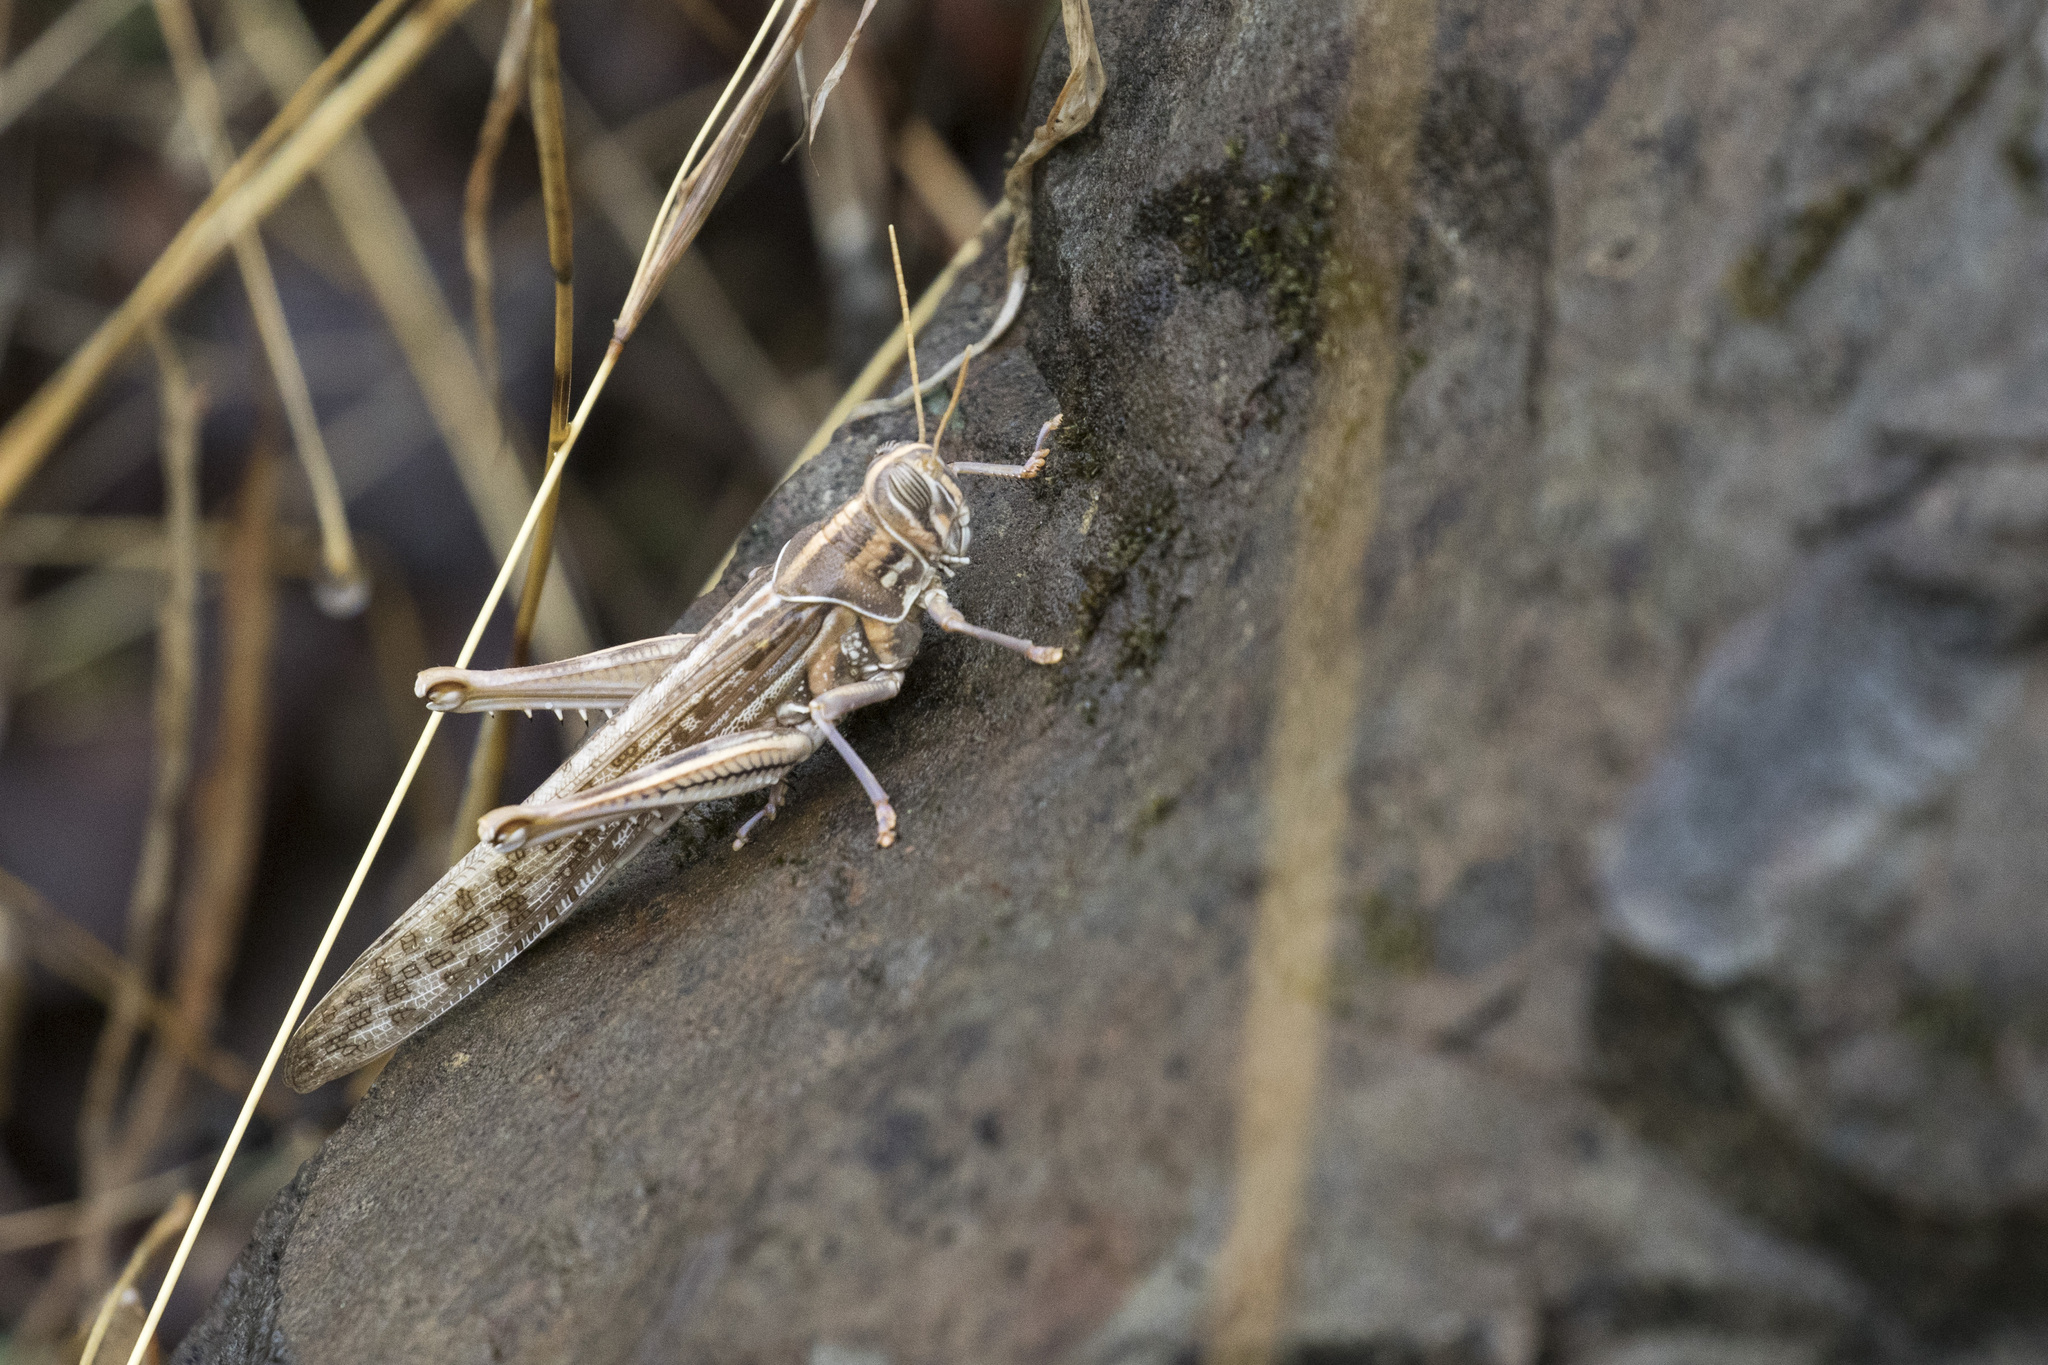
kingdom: Animalia
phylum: Arthropoda
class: Insecta
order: Orthoptera
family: Acrididae
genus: Schistocerca
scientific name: Schistocerca gregaria
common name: Desert locust
